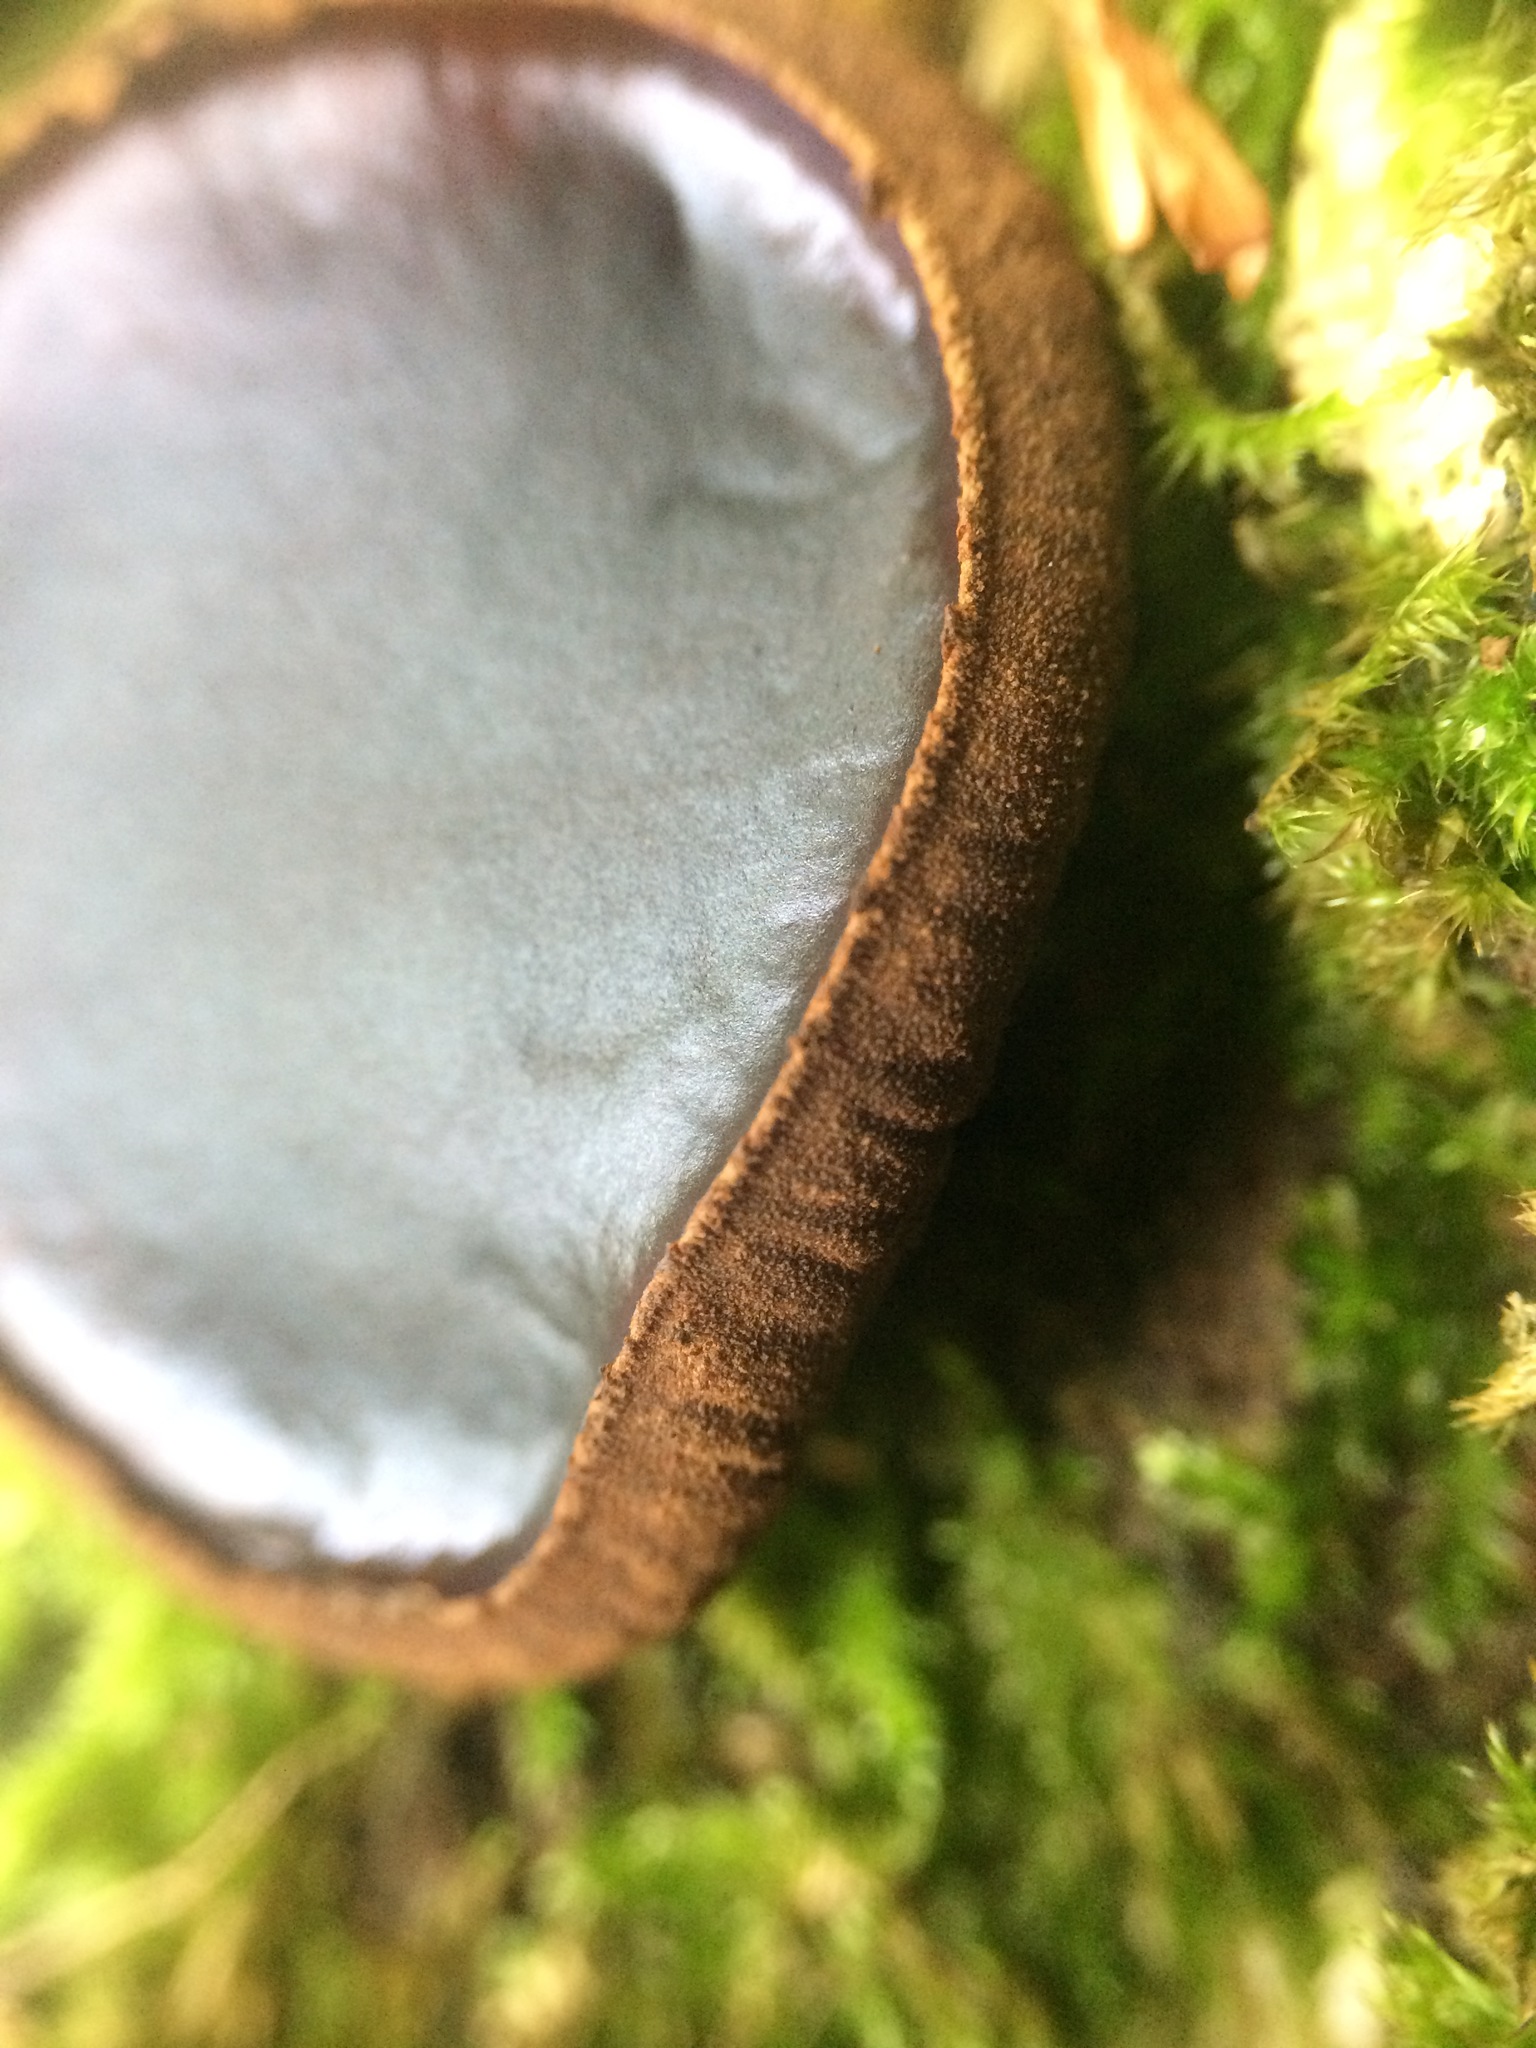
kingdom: Fungi
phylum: Ascomycota
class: Leotiomycetes
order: Phacidiales
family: Phacidiaceae
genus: Bulgaria
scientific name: Bulgaria inquinans
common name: Black bulgar
